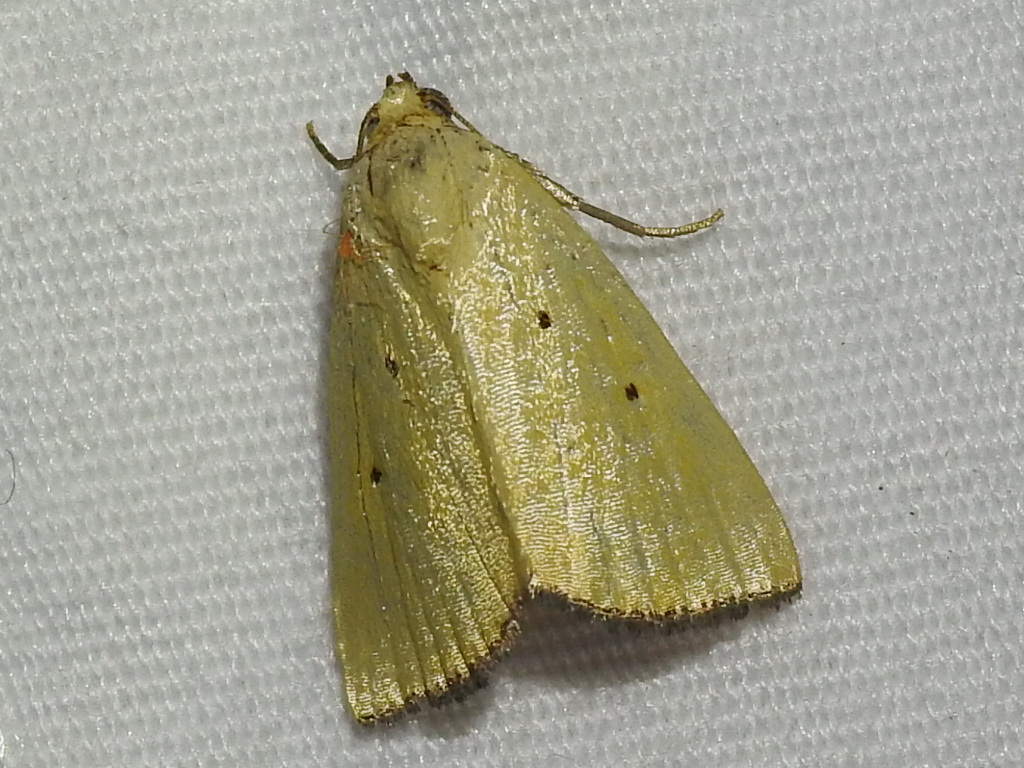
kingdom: Animalia
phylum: Arthropoda
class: Insecta
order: Lepidoptera
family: Noctuidae
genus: Marimatha
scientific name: Marimatha nigrofimbria
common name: Black-bordered lemon moth
